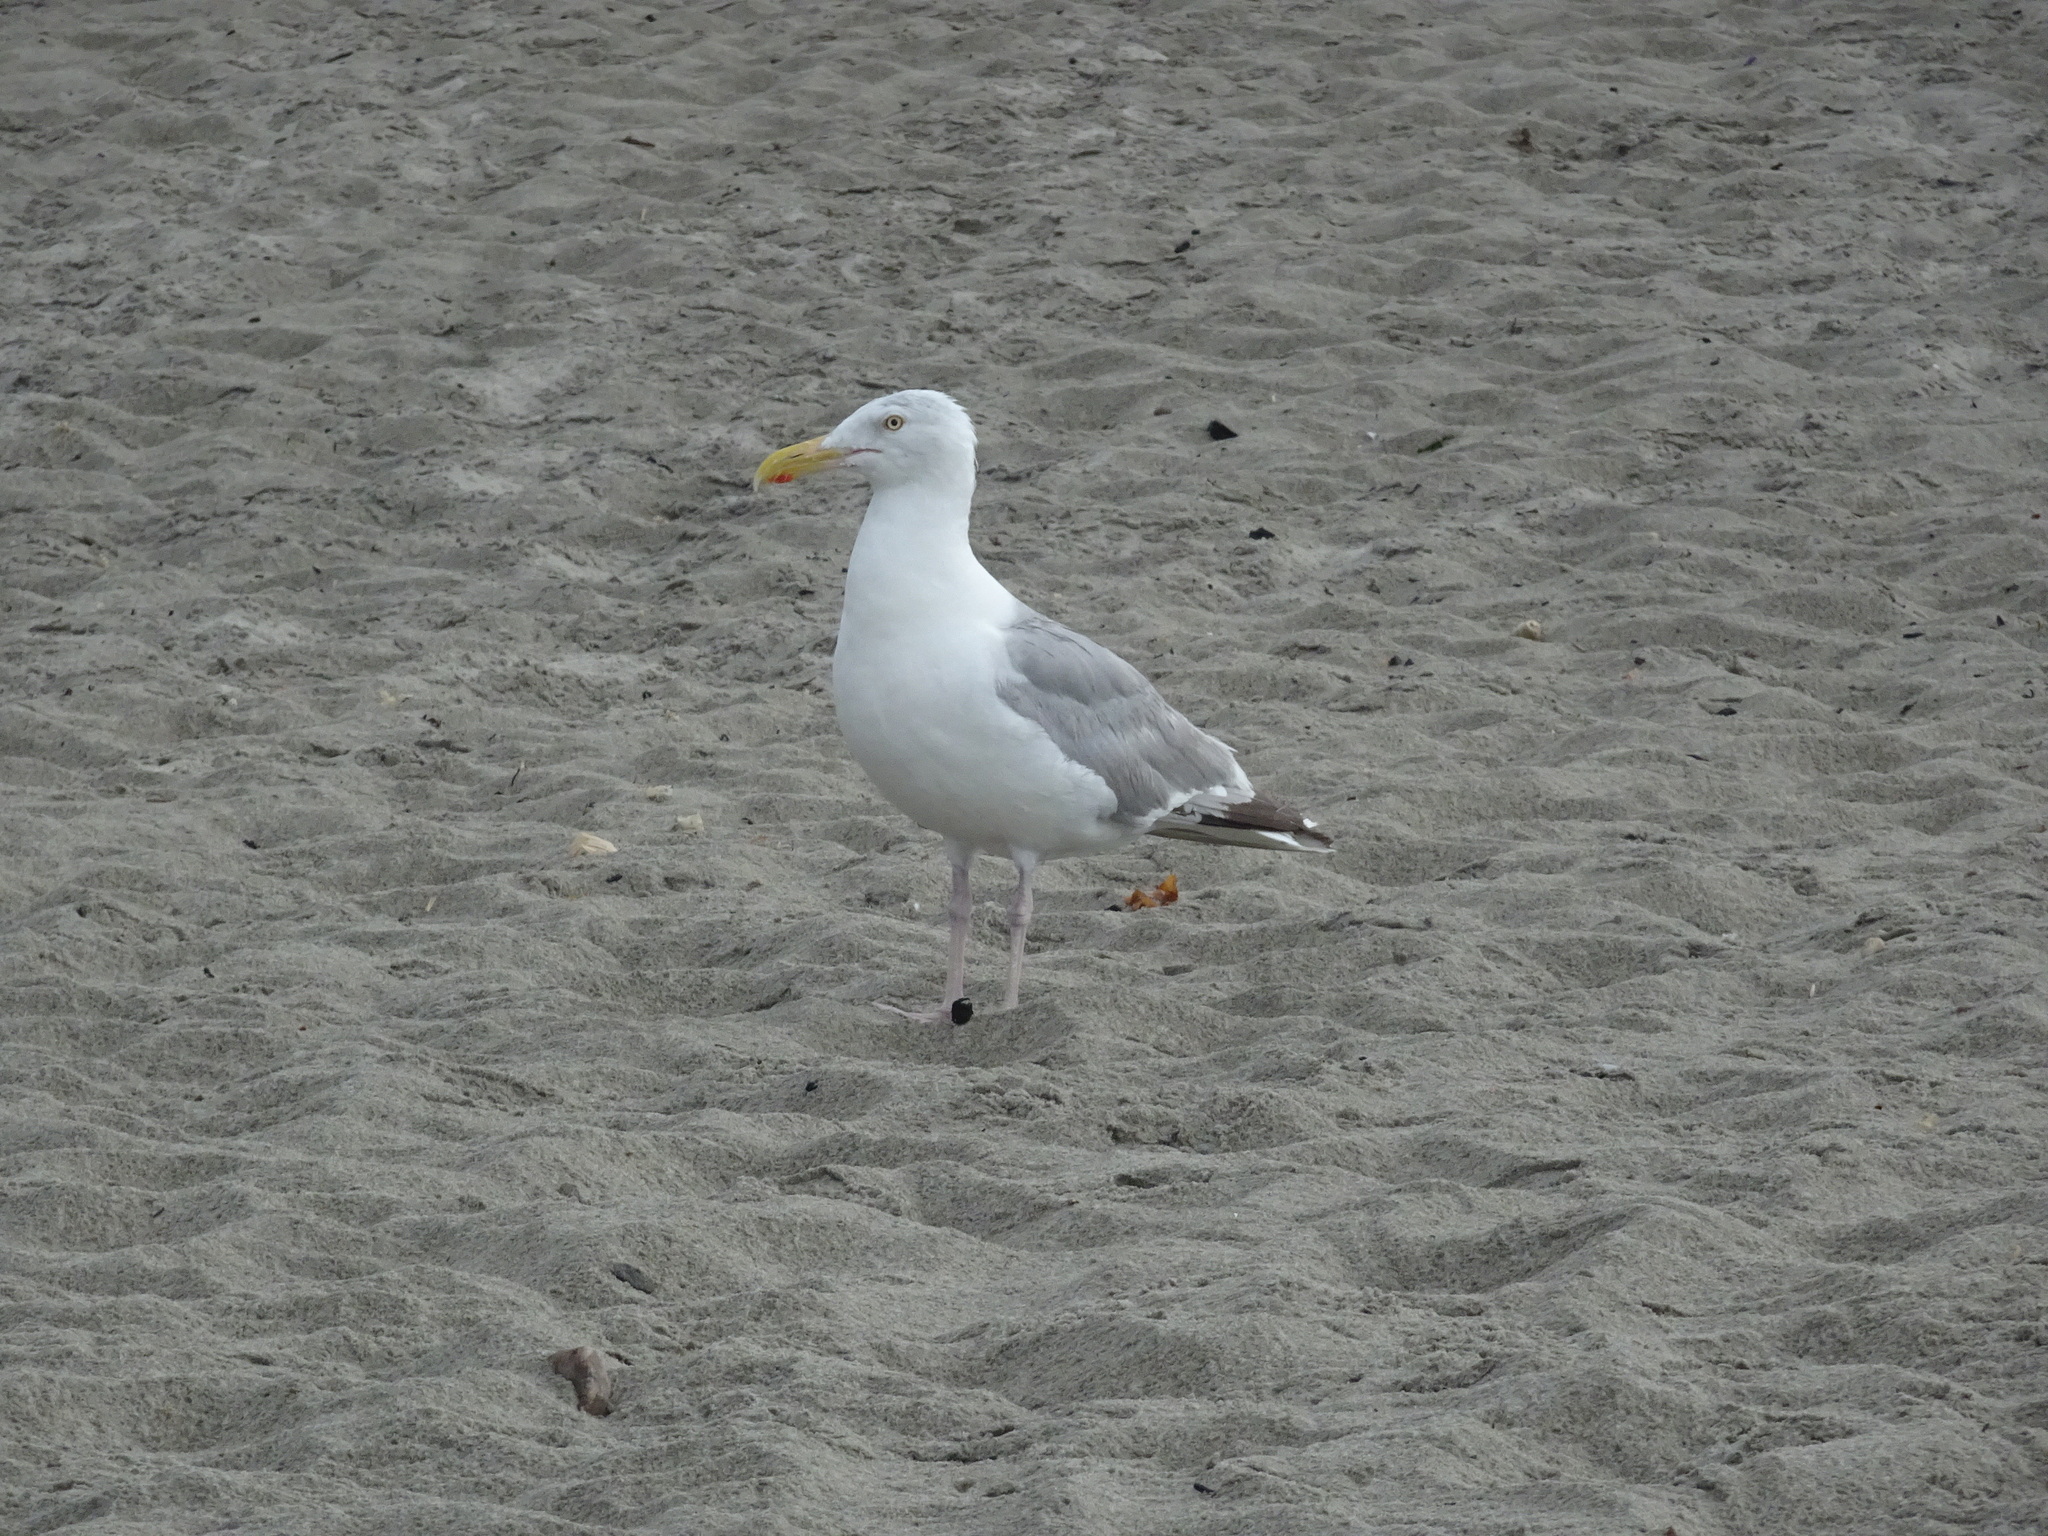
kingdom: Animalia
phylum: Chordata
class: Aves
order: Charadriiformes
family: Laridae
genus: Larus
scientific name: Larus argentatus
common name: Herring gull
